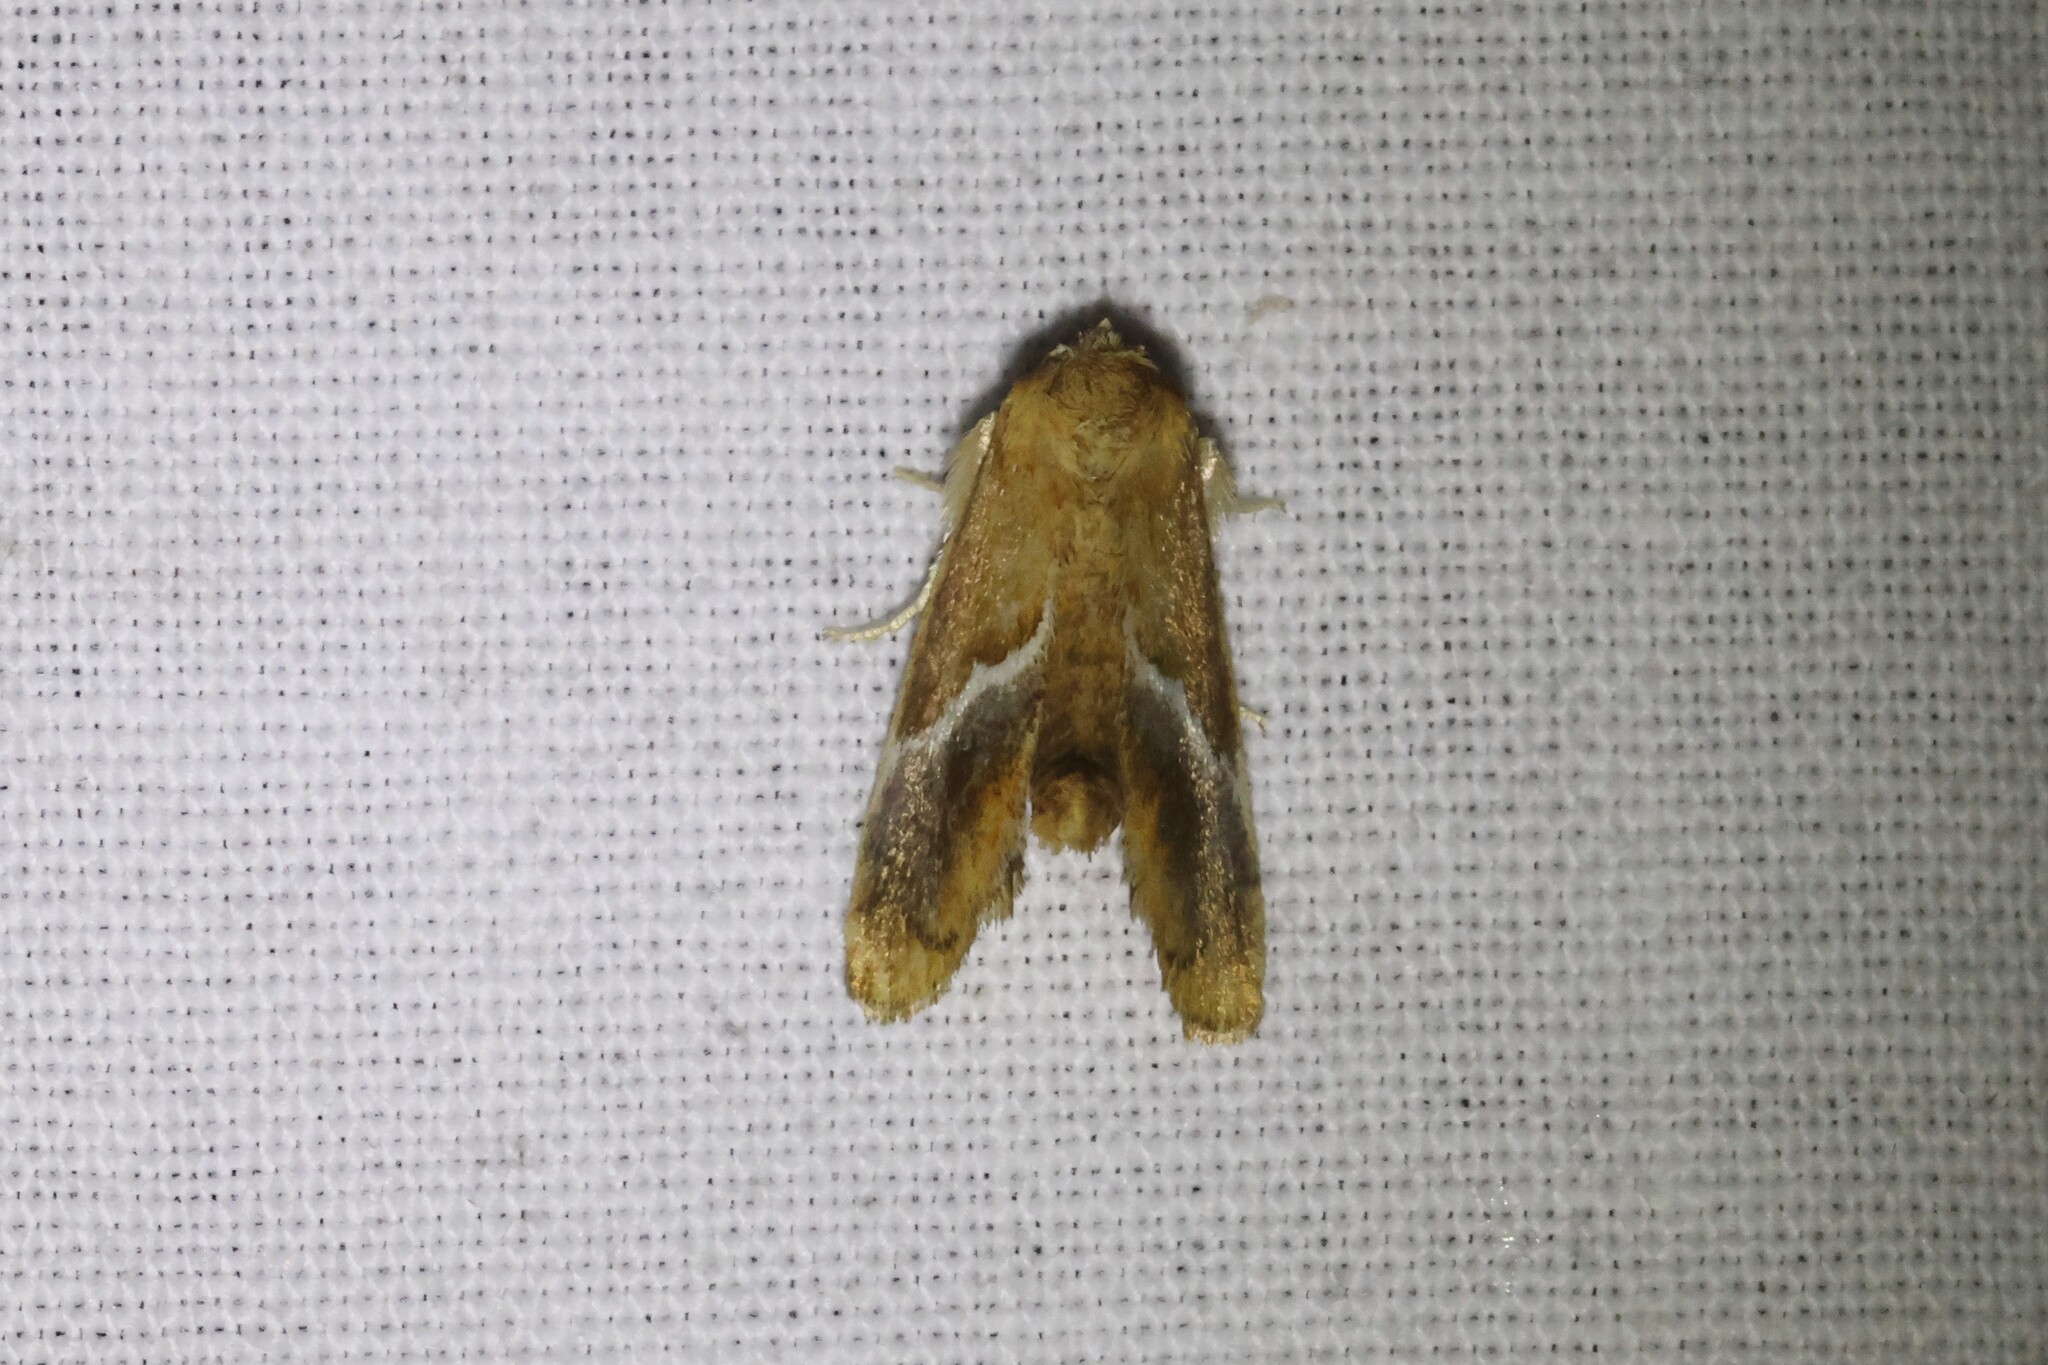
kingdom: Animalia
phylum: Arthropoda
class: Insecta
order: Lepidoptera
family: Limacodidae
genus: Lithacodes
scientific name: Lithacodes fasciola
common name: Yellow-shouldered slug moth
